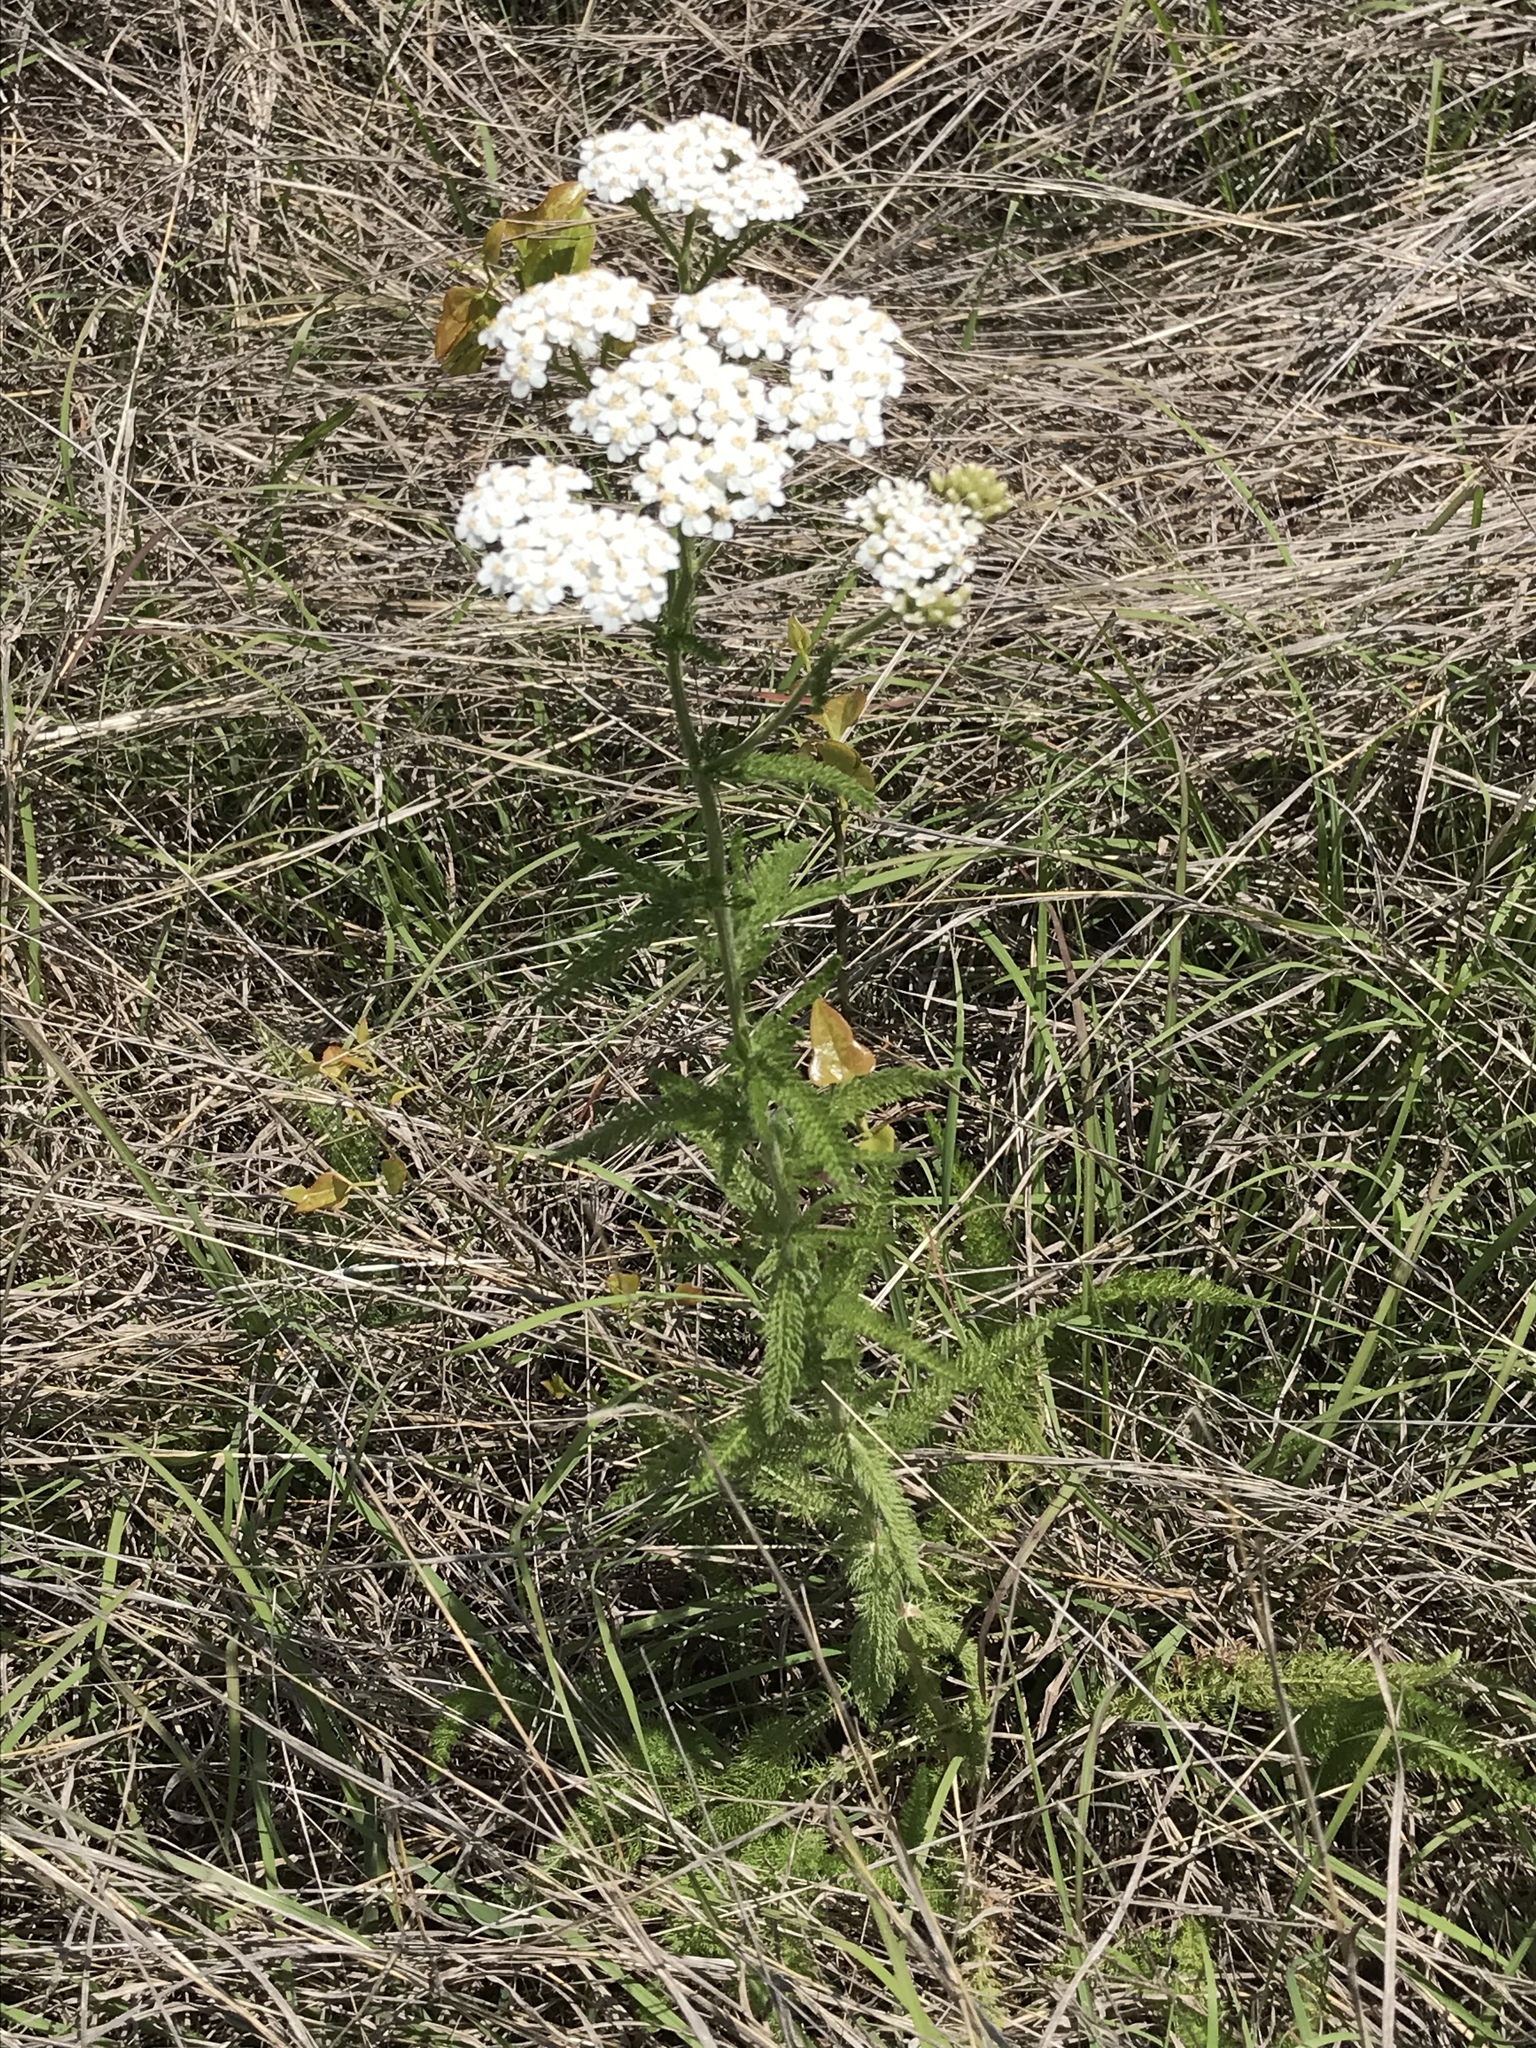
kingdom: Plantae
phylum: Tracheophyta
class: Magnoliopsida
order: Asterales
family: Asteraceae
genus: Achillea
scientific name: Achillea millefolium
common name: Yarrow
